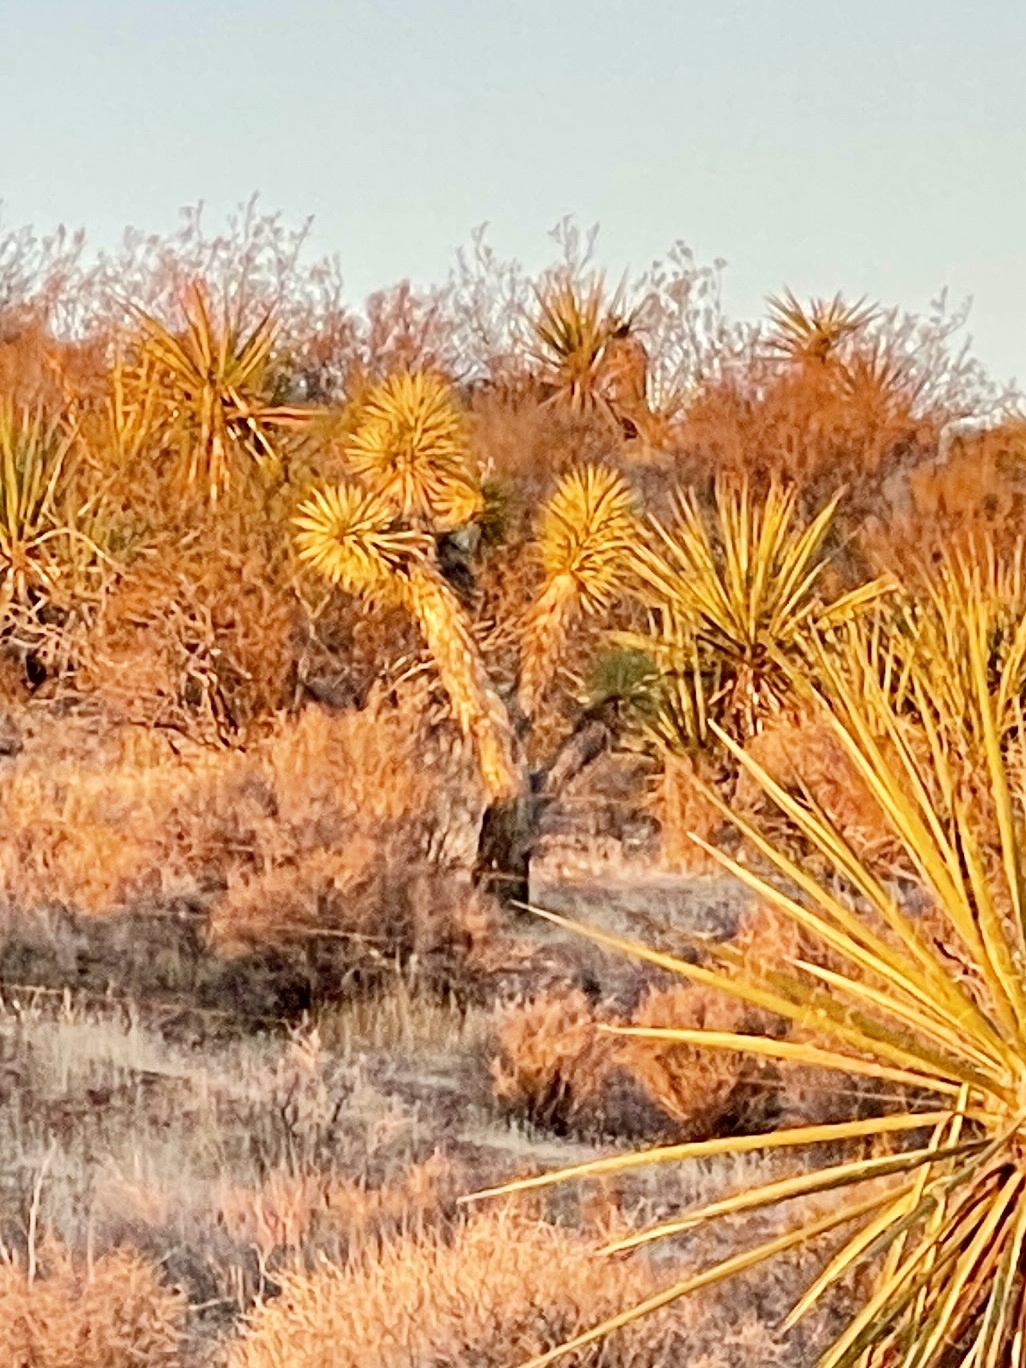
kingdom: Plantae
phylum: Tracheophyta
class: Liliopsida
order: Asparagales
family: Asparagaceae
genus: Yucca
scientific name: Yucca brevifolia
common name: Joshua tree
